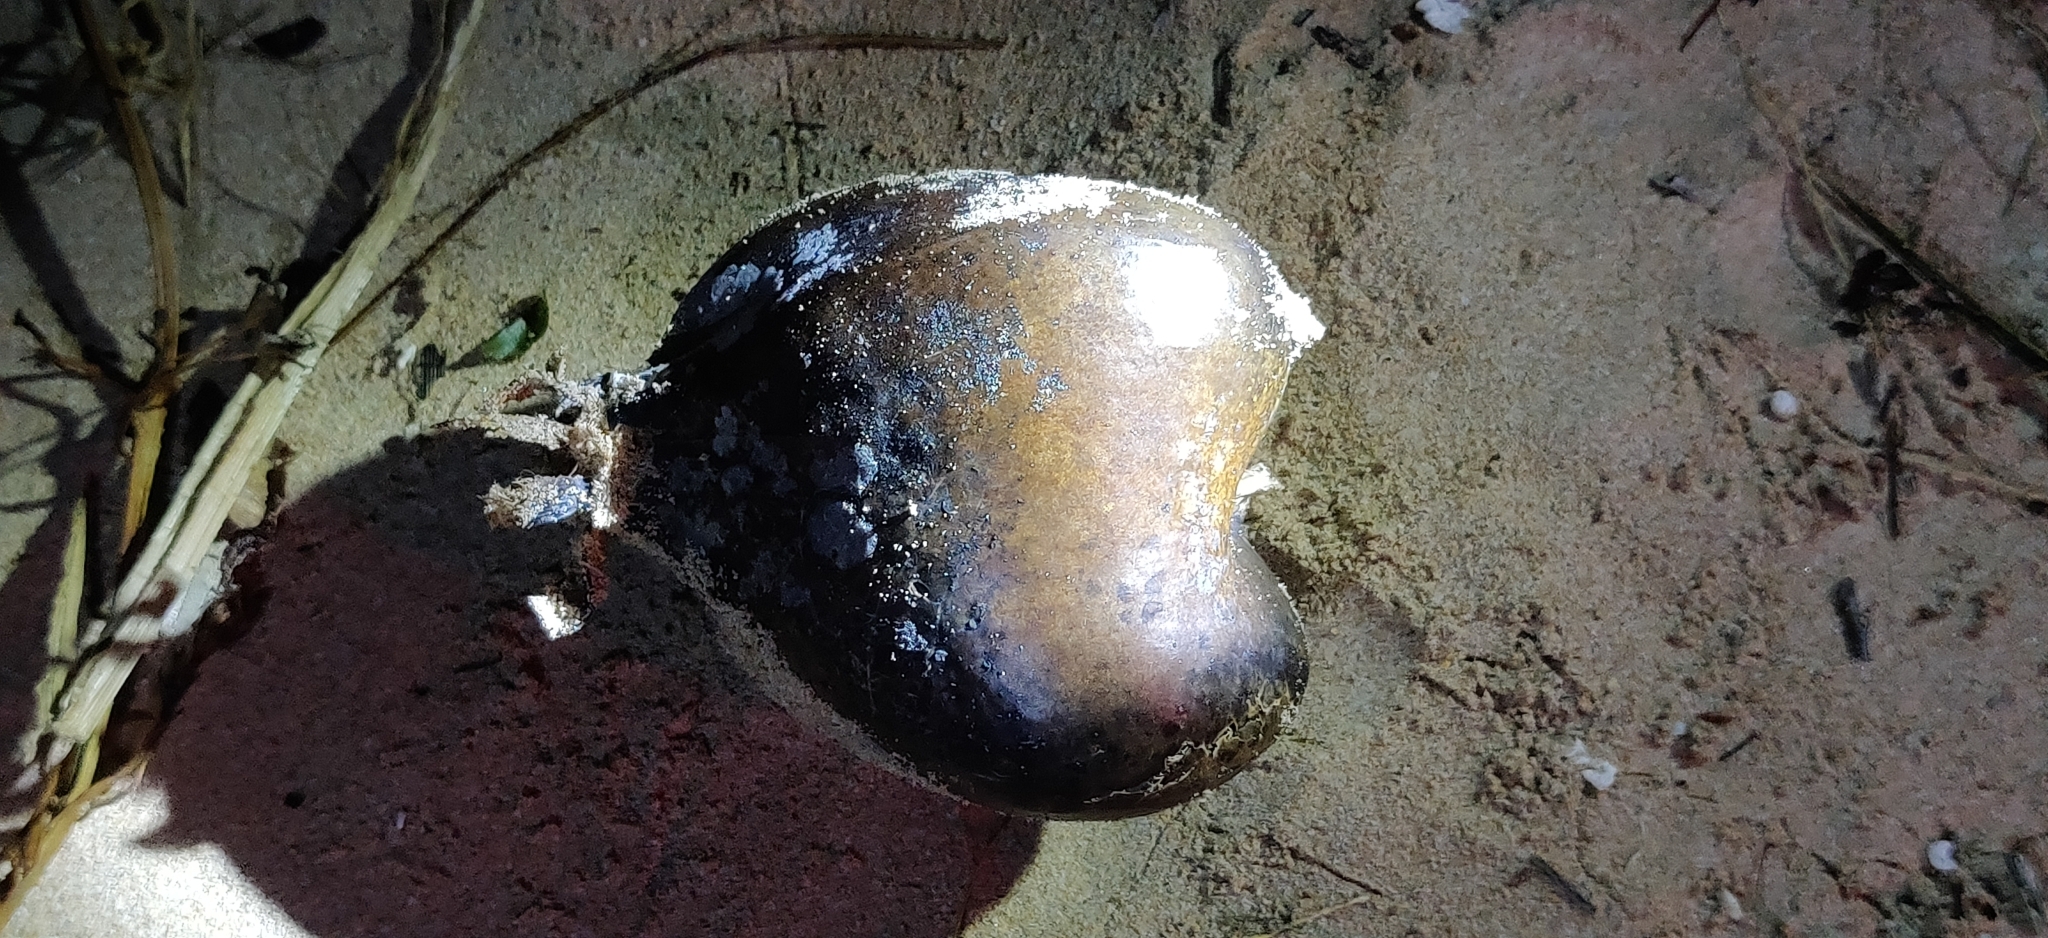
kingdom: Plantae
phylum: Tracheophyta
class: Magnoliopsida
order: Ericales
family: Lecythidaceae
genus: Barringtonia
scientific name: Barringtonia asiatica
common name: Mango-pine
